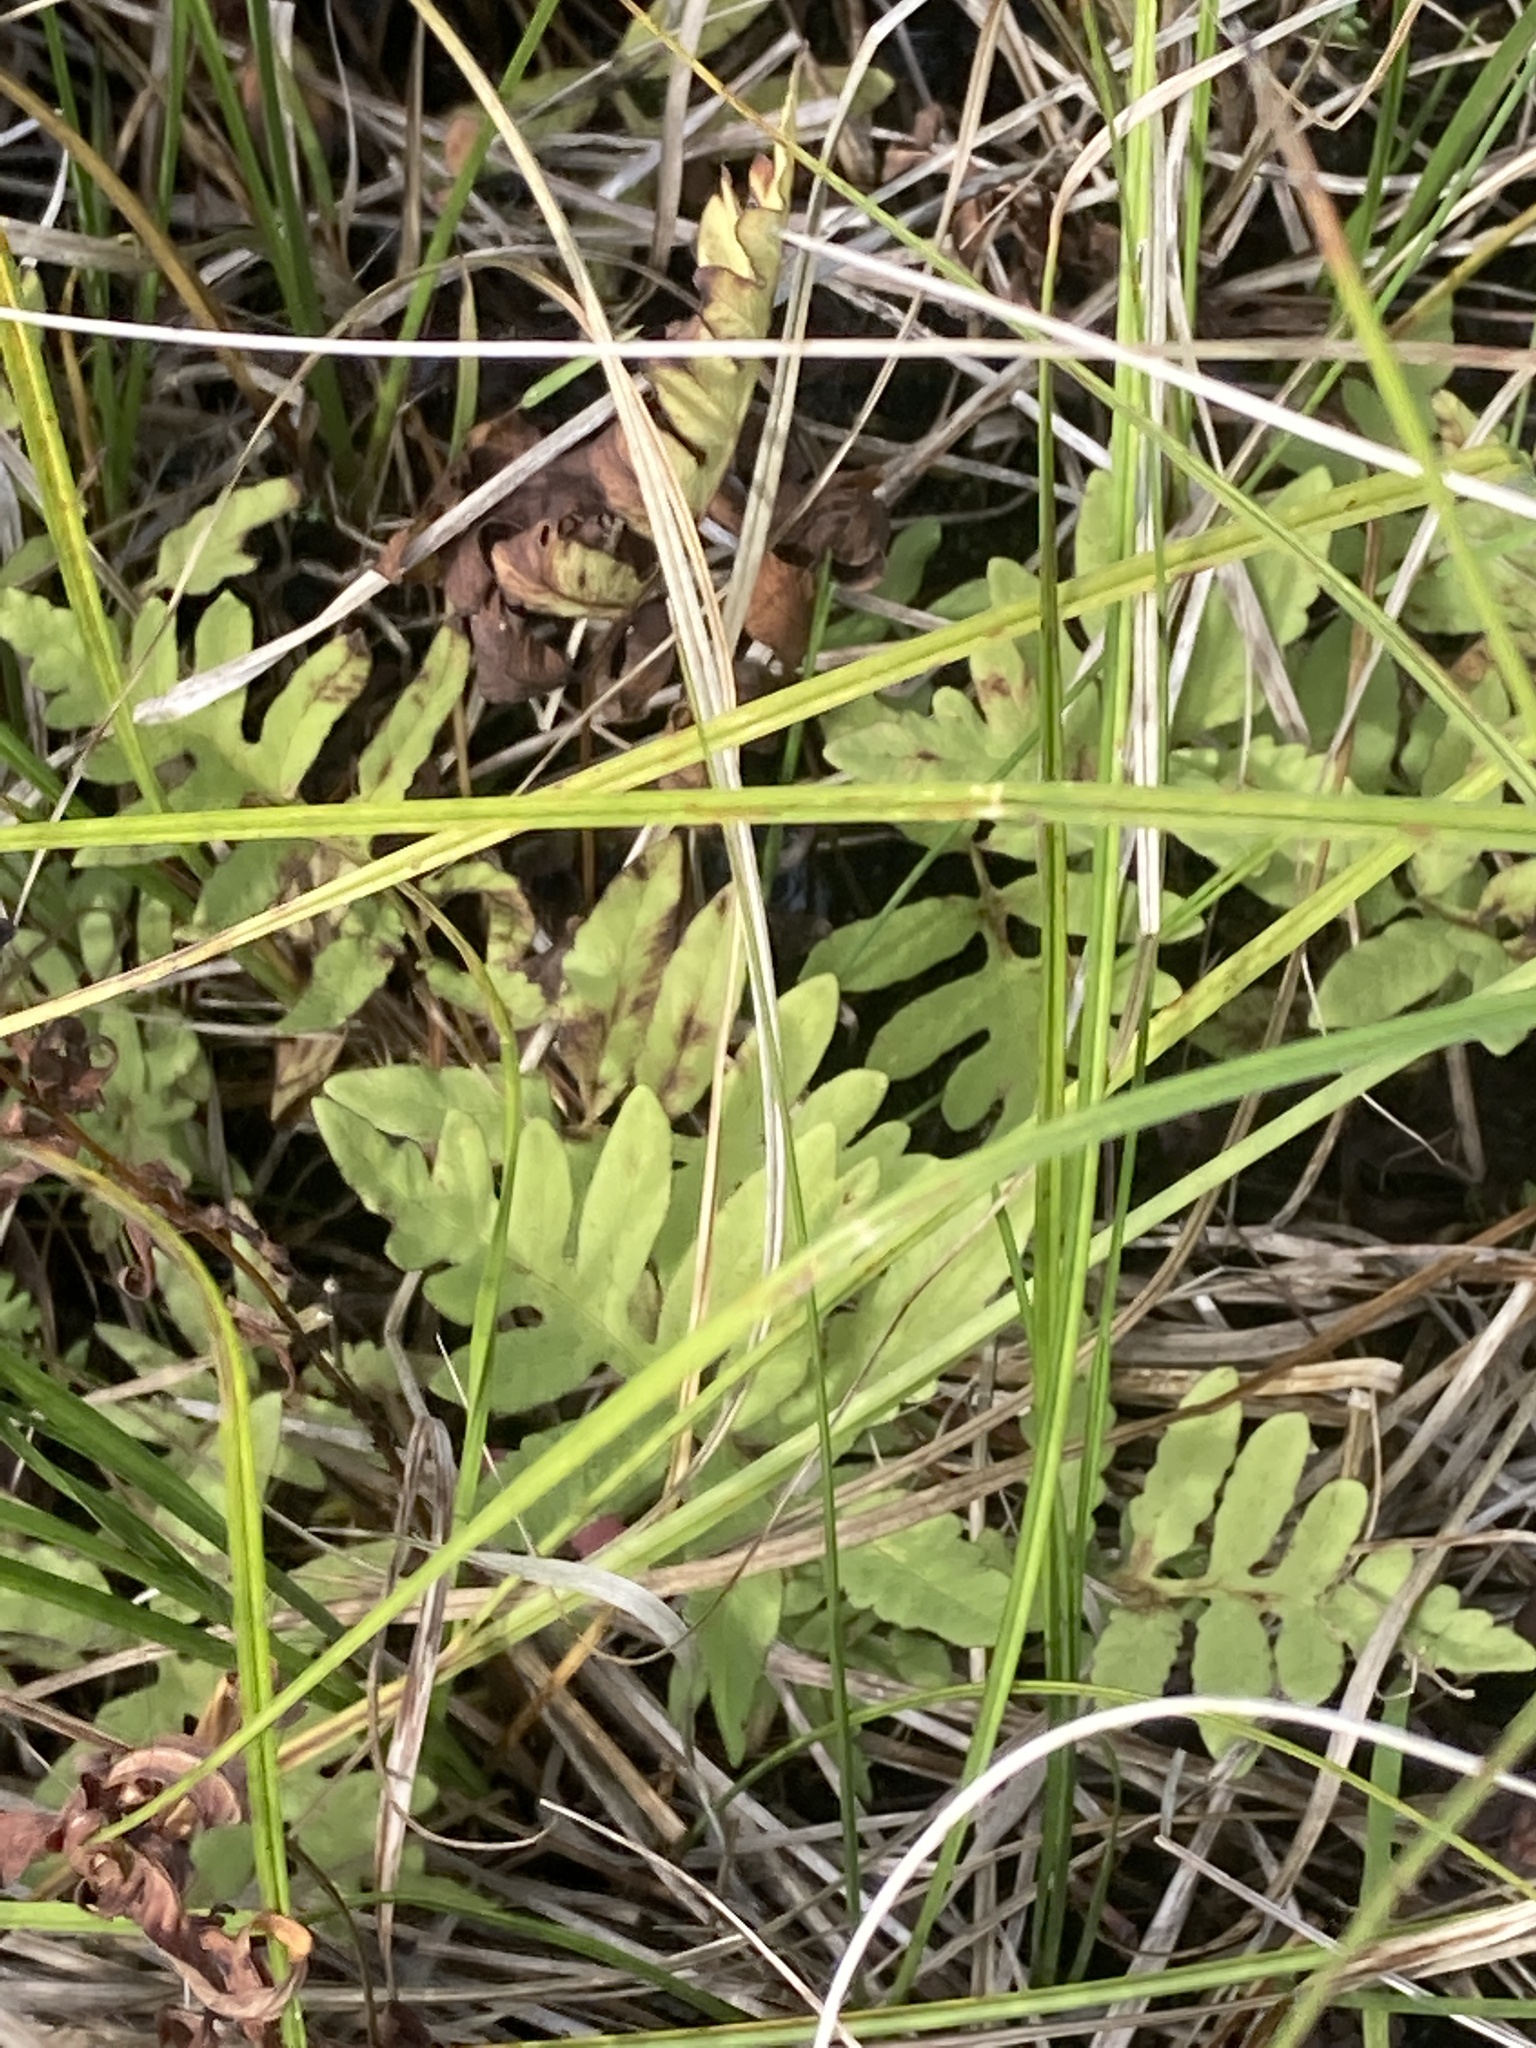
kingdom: Plantae
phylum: Tracheophyta
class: Polypodiopsida
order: Polypodiales
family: Onocleaceae
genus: Onoclea
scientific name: Onoclea sensibilis
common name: Sensitive fern
